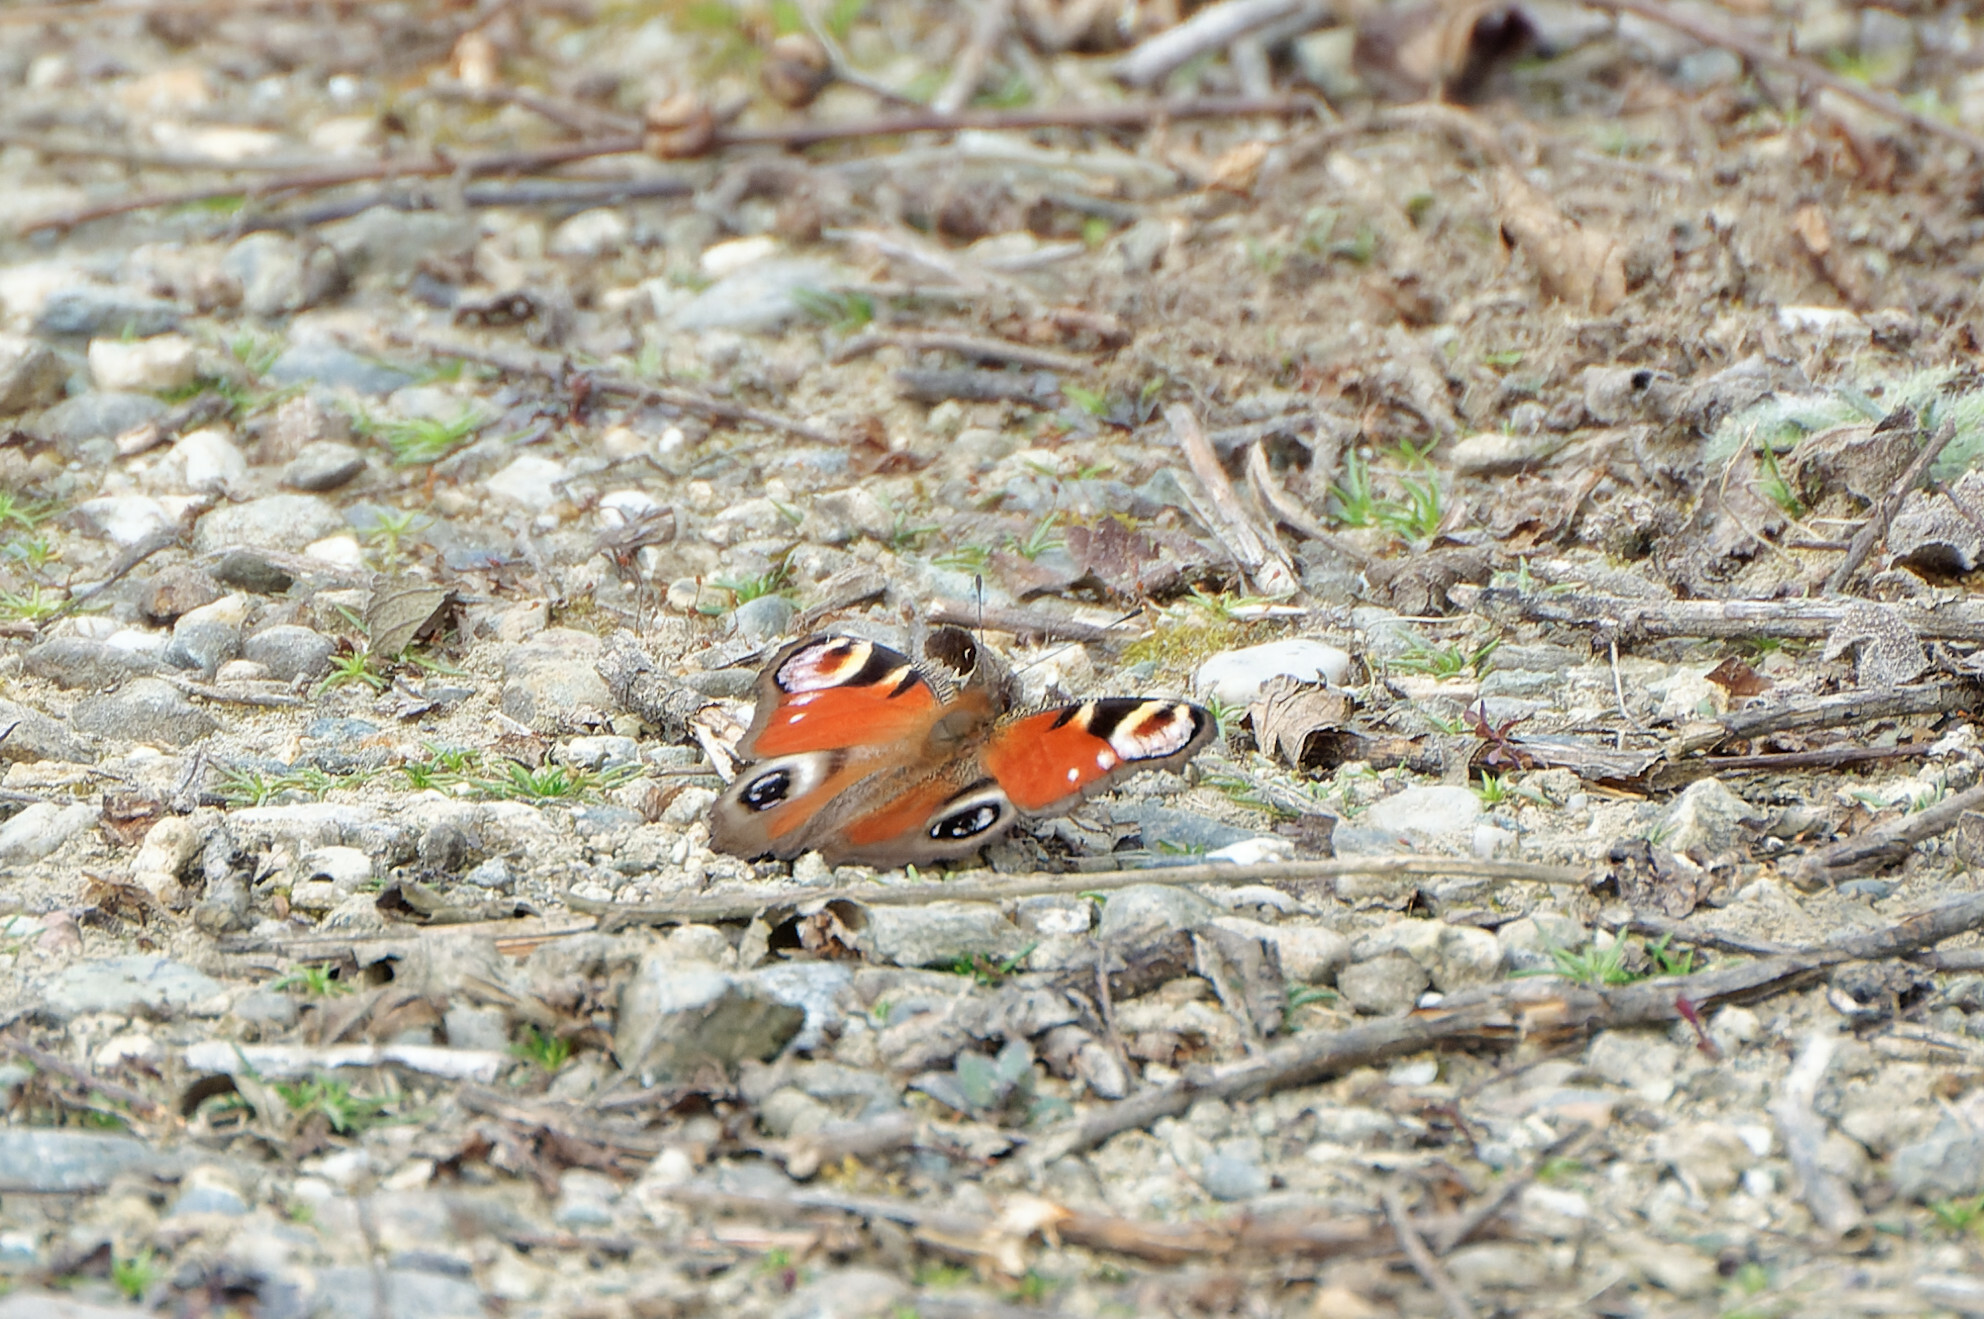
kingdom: Animalia
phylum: Arthropoda
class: Insecta
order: Lepidoptera
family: Nymphalidae
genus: Aglais
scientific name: Aglais io
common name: Peacock
